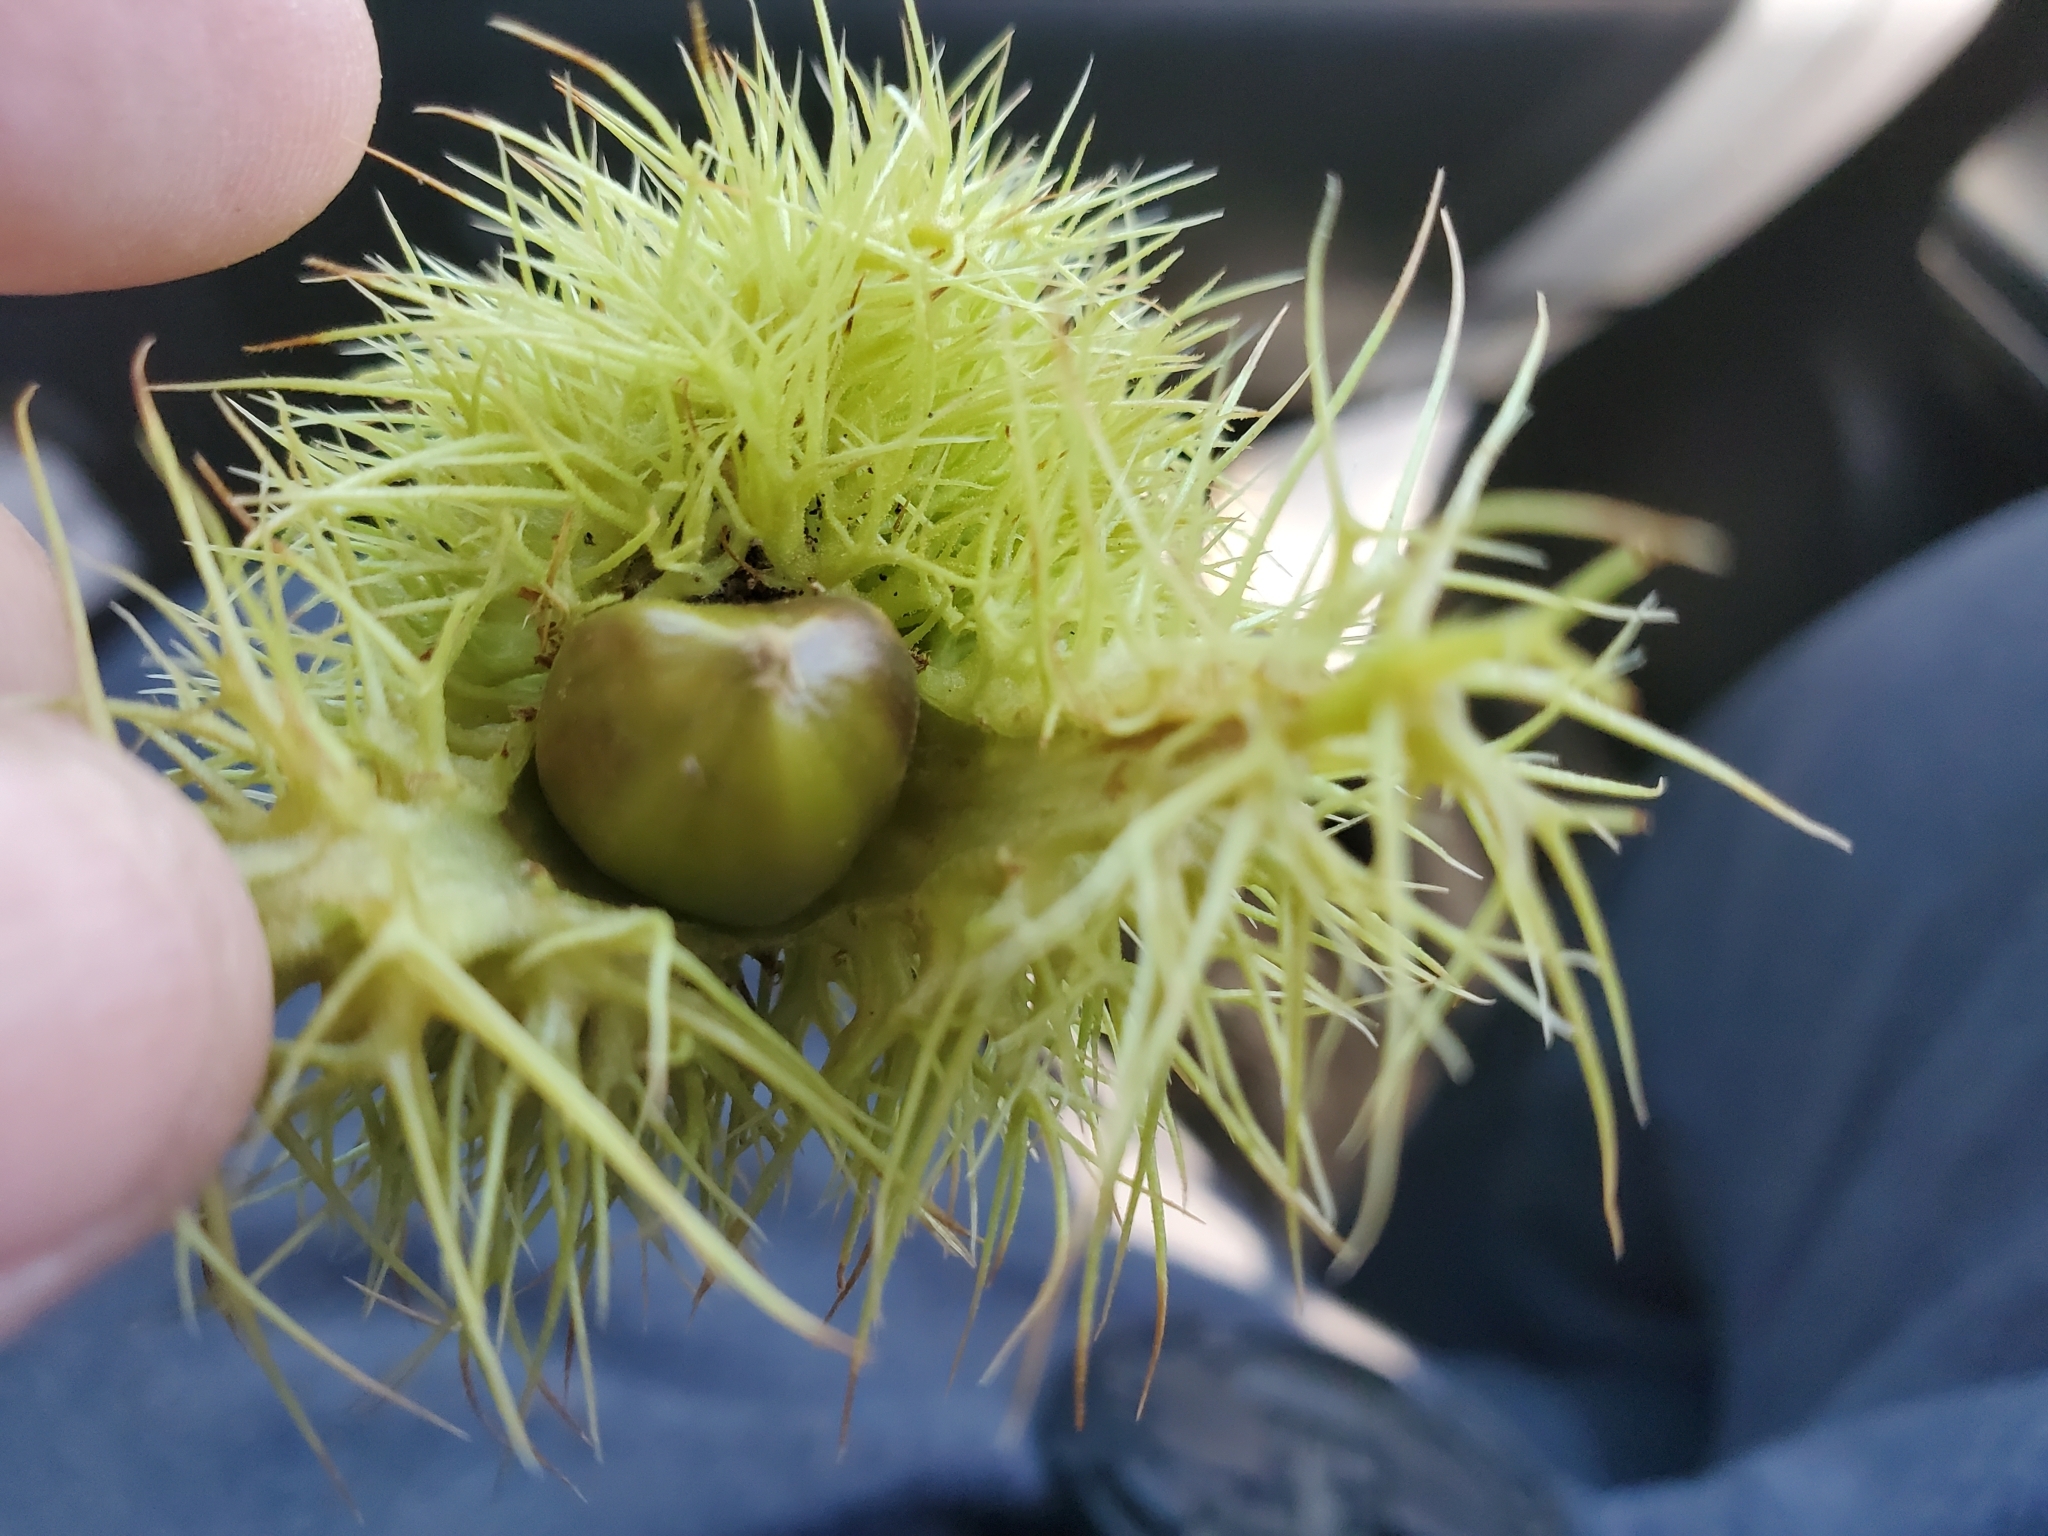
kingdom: Plantae
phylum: Tracheophyta
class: Magnoliopsida
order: Fagales
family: Fagaceae
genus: Chrysolepis
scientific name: Chrysolepis sempervirens
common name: Bush chinquapin
